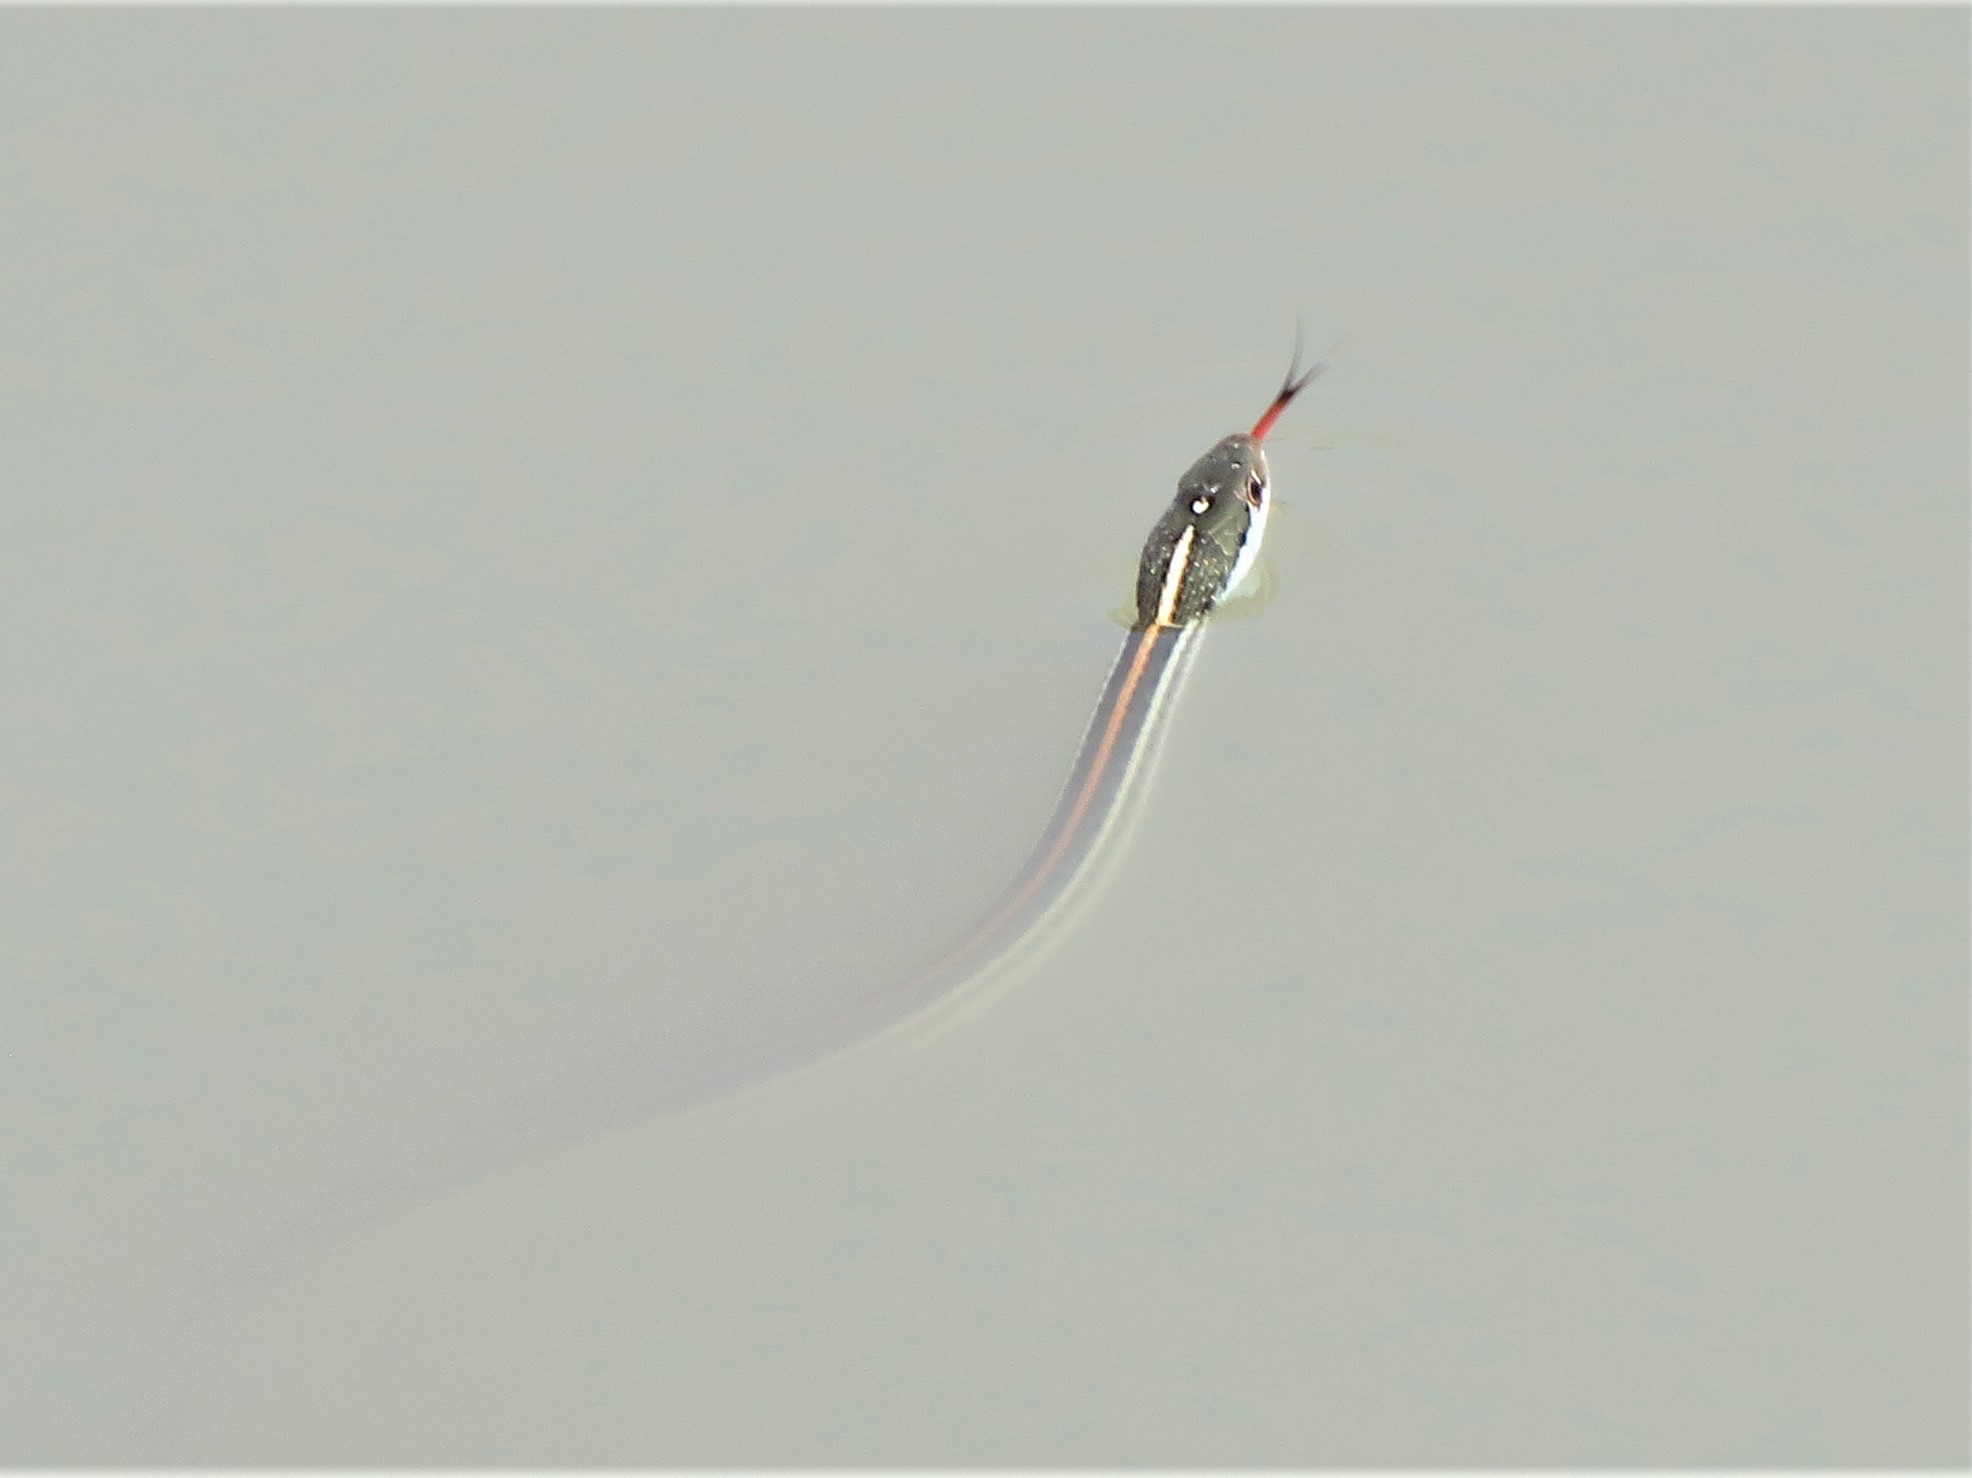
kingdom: Animalia
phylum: Chordata
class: Squamata
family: Colubridae
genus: Thamnophis
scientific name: Thamnophis proximus
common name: Western ribbon snake
